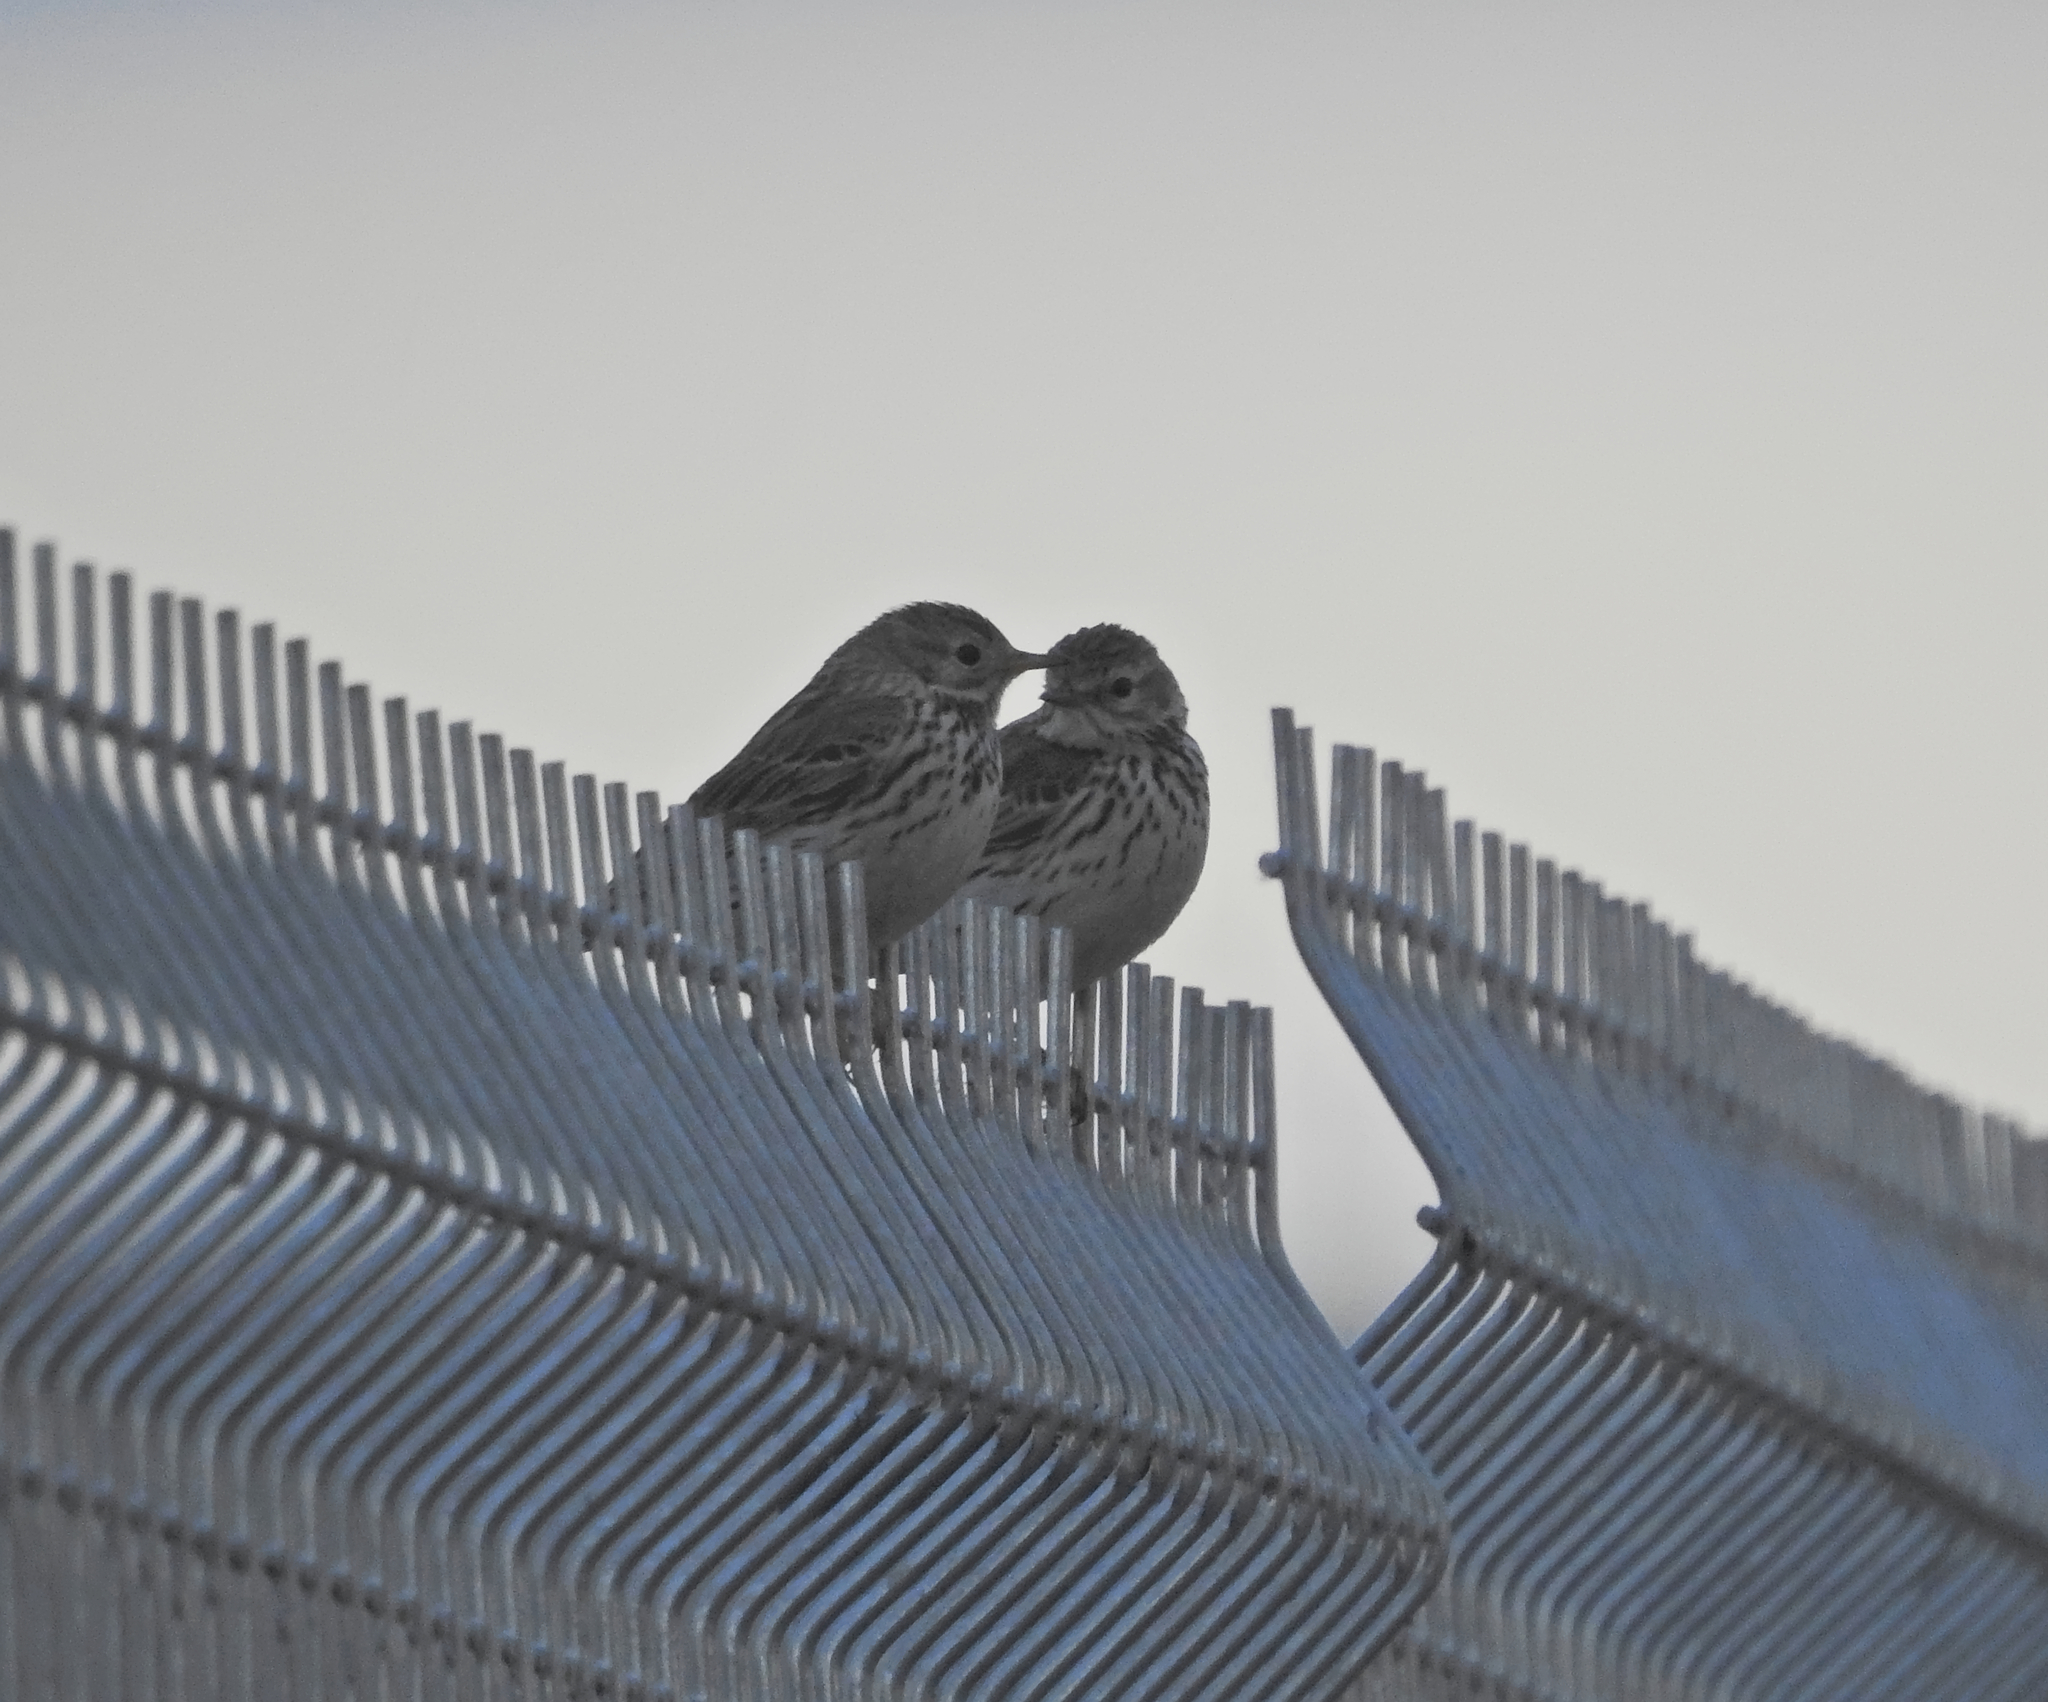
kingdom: Animalia
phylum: Chordata
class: Aves
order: Passeriformes
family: Motacillidae
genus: Anthus
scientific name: Anthus pratensis
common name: Meadow pipit
